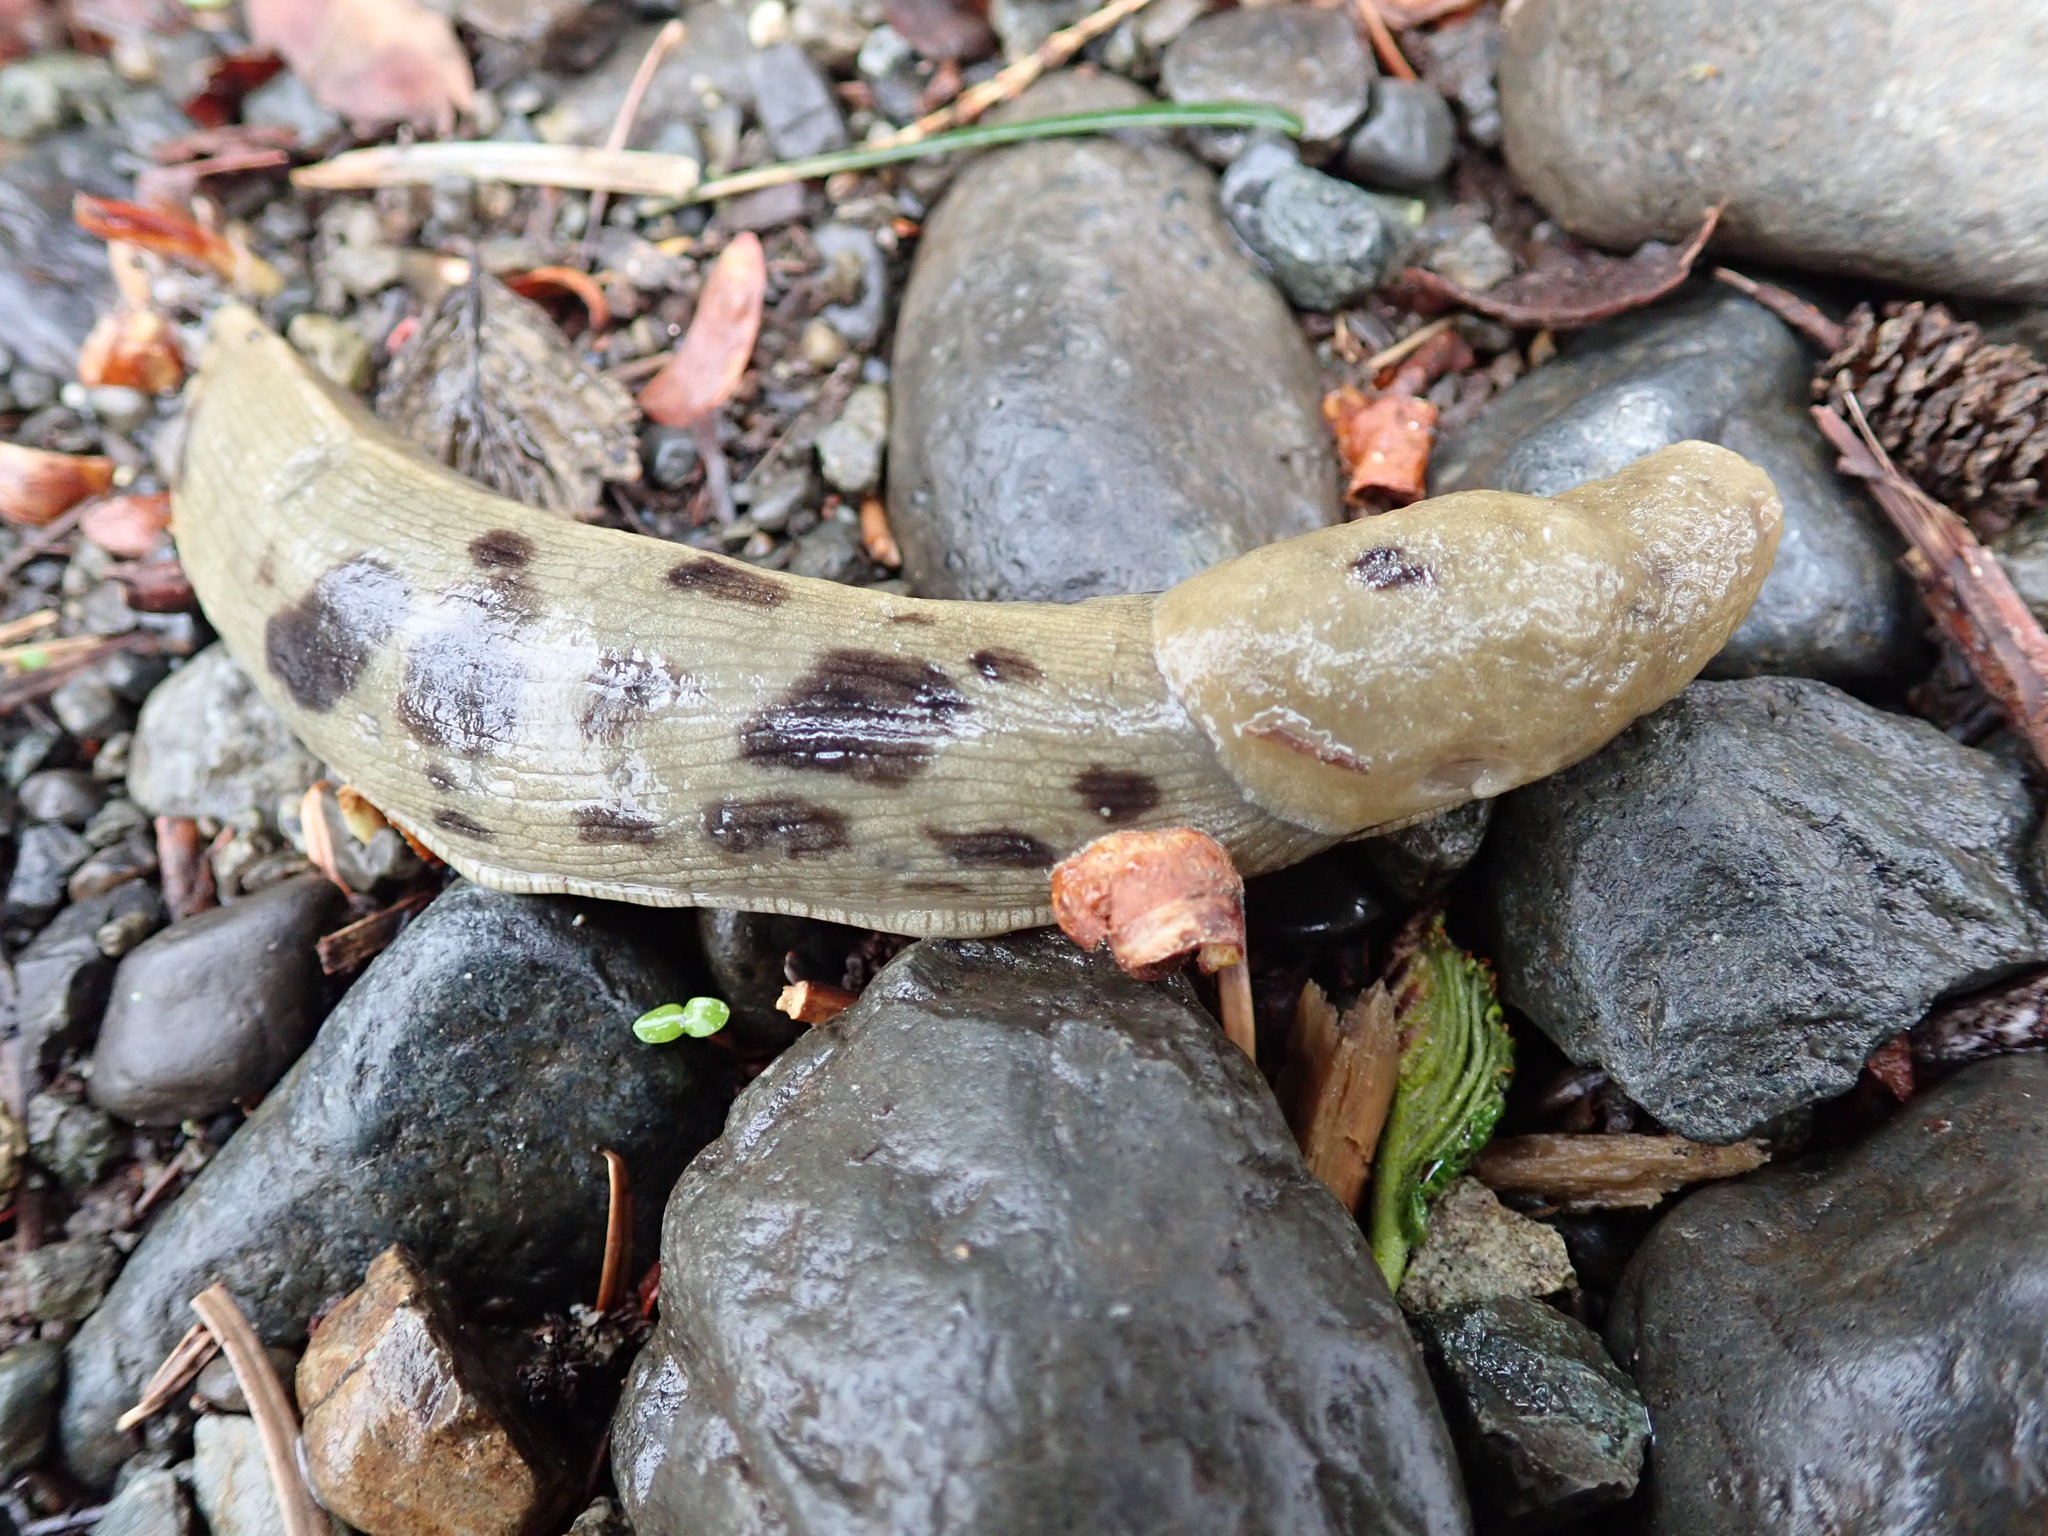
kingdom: Animalia
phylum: Mollusca
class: Gastropoda
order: Stylommatophora
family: Ariolimacidae
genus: Ariolimax
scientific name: Ariolimax columbianus
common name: Pacific banana slug
